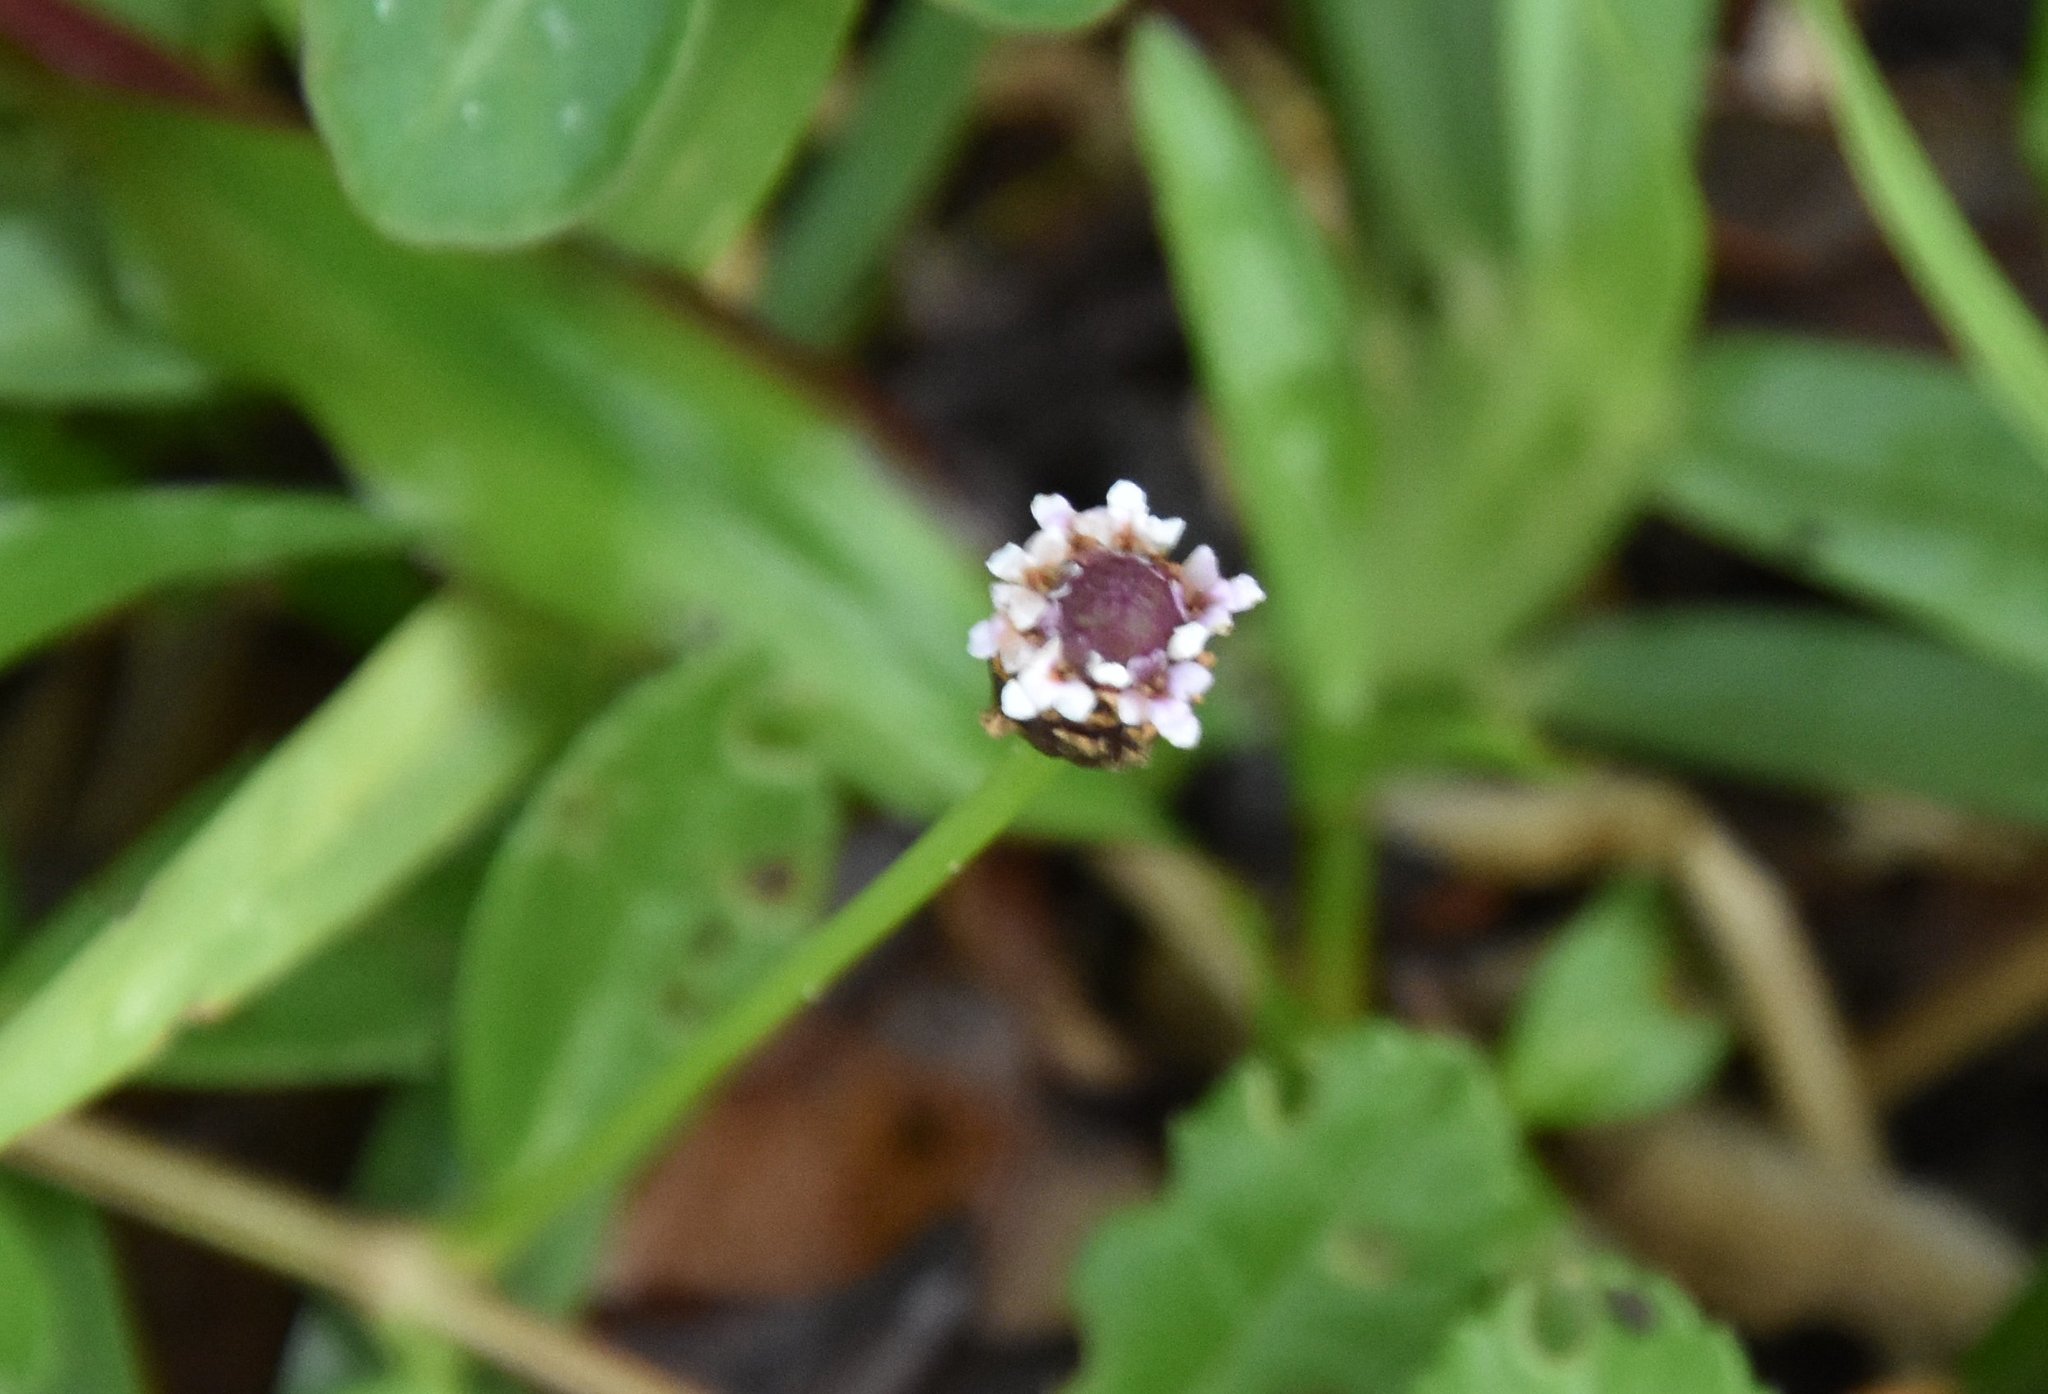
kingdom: Plantae
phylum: Tracheophyta
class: Magnoliopsida
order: Lamiales
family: Verbenaceae
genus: Phyla
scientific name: Phyla nodiflora
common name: Frogfruit
